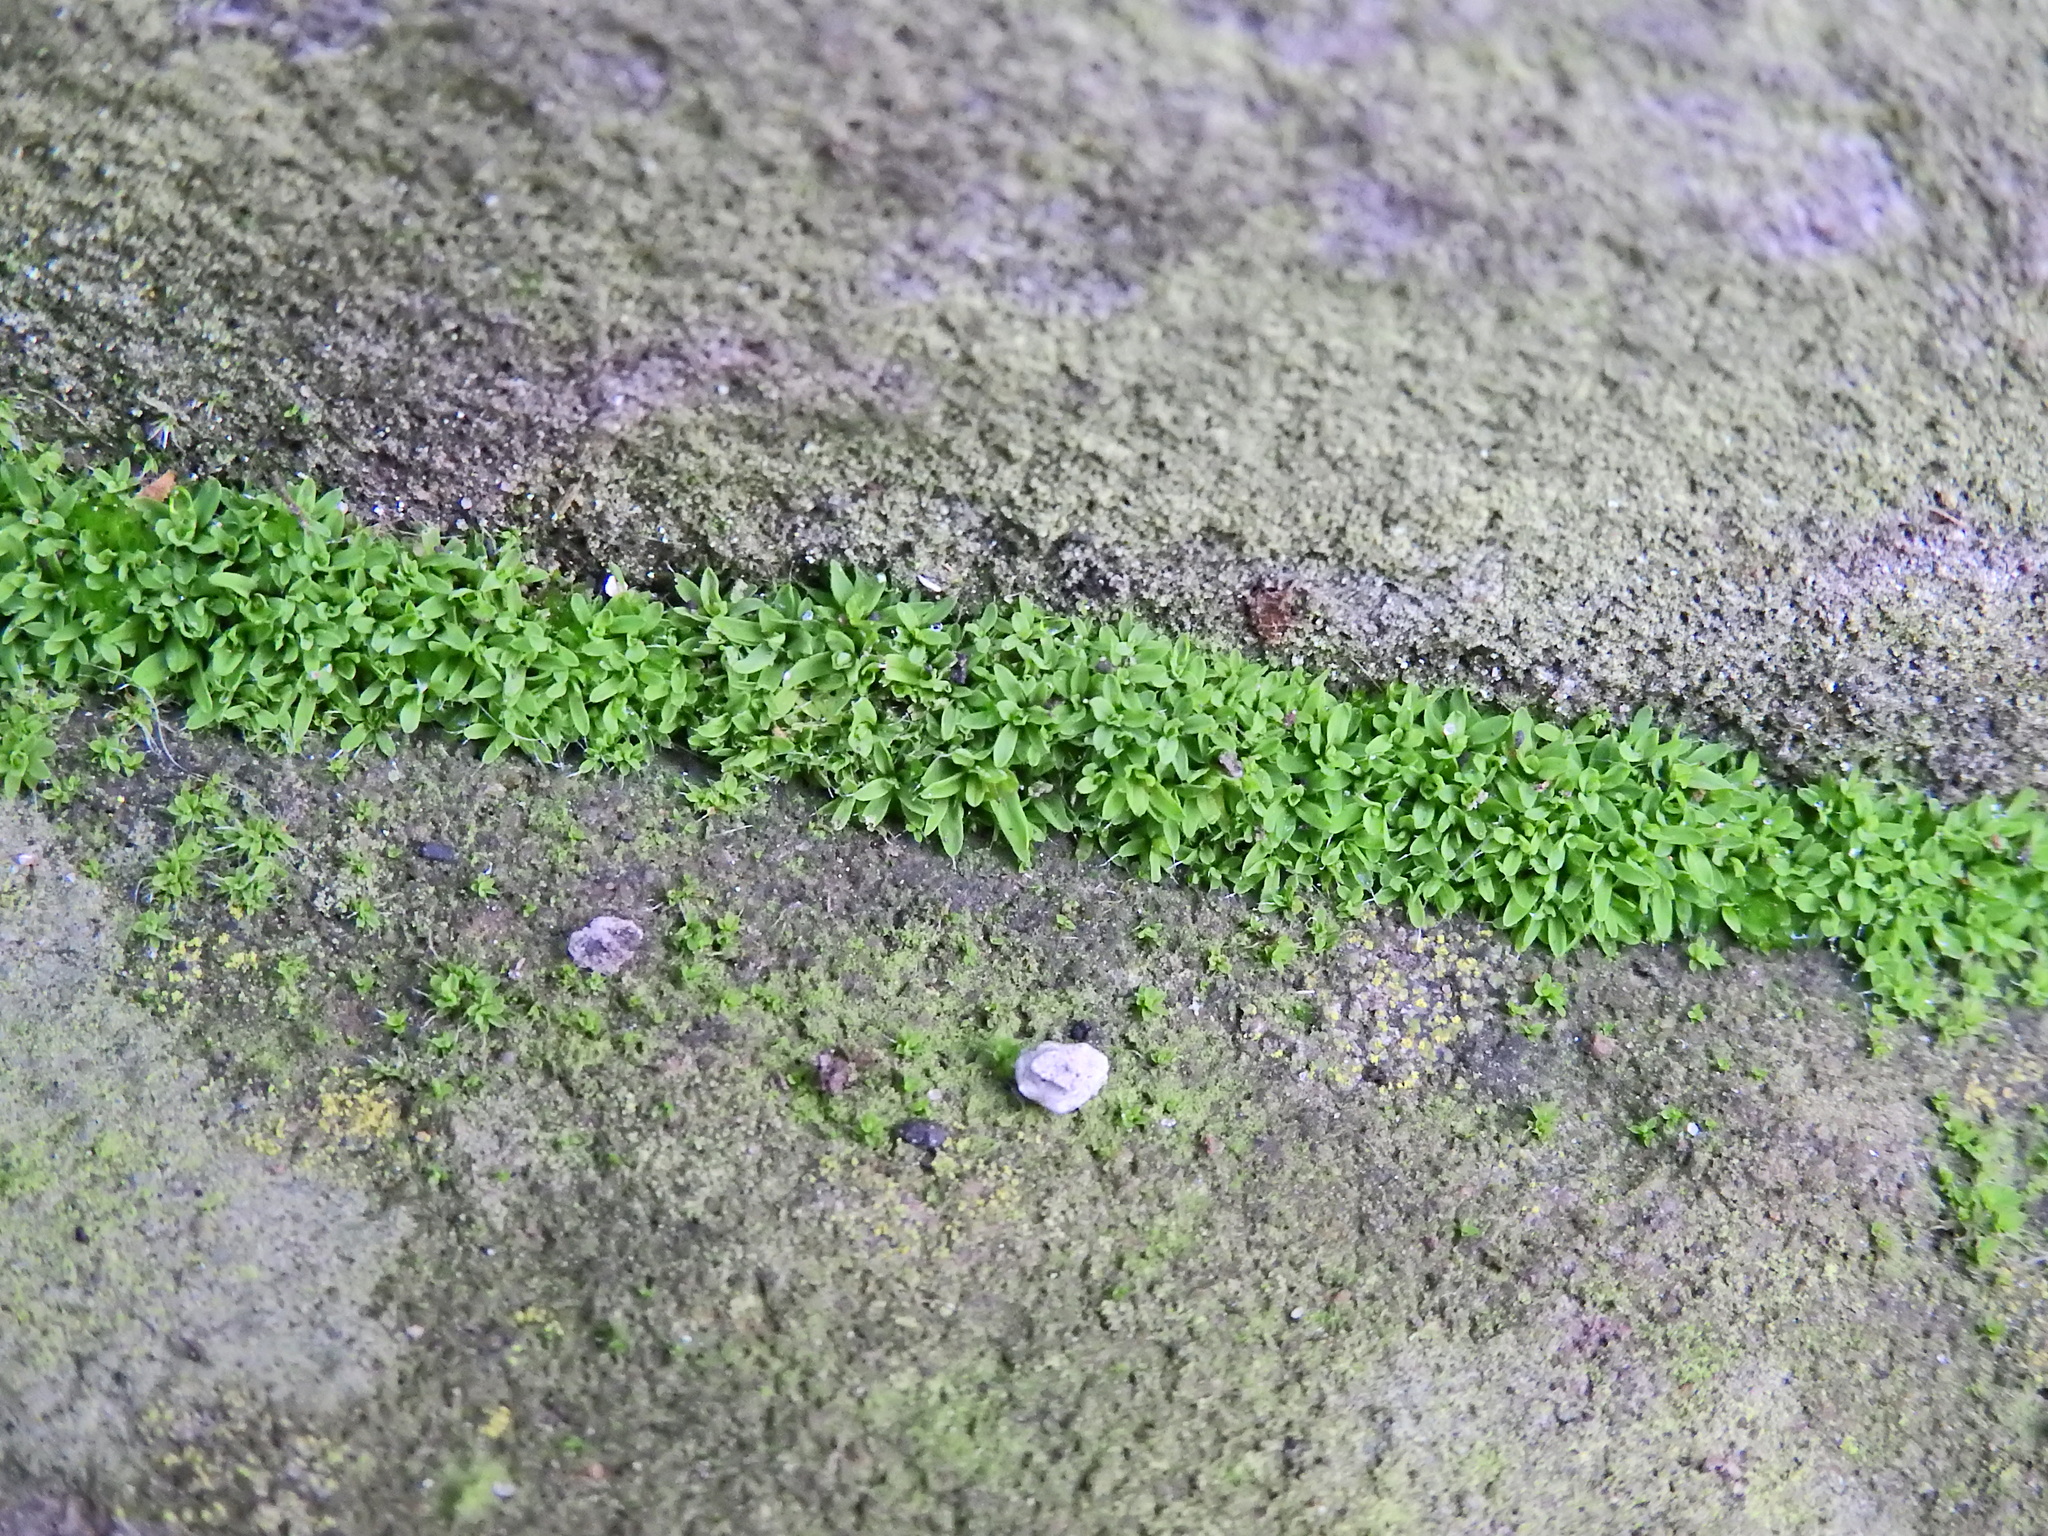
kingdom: Plantae
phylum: Bryophyta
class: Bryopsida
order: Pottiales
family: Pottiaceae
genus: Tortula
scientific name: Tortula muralis
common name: Wall screw-moss
